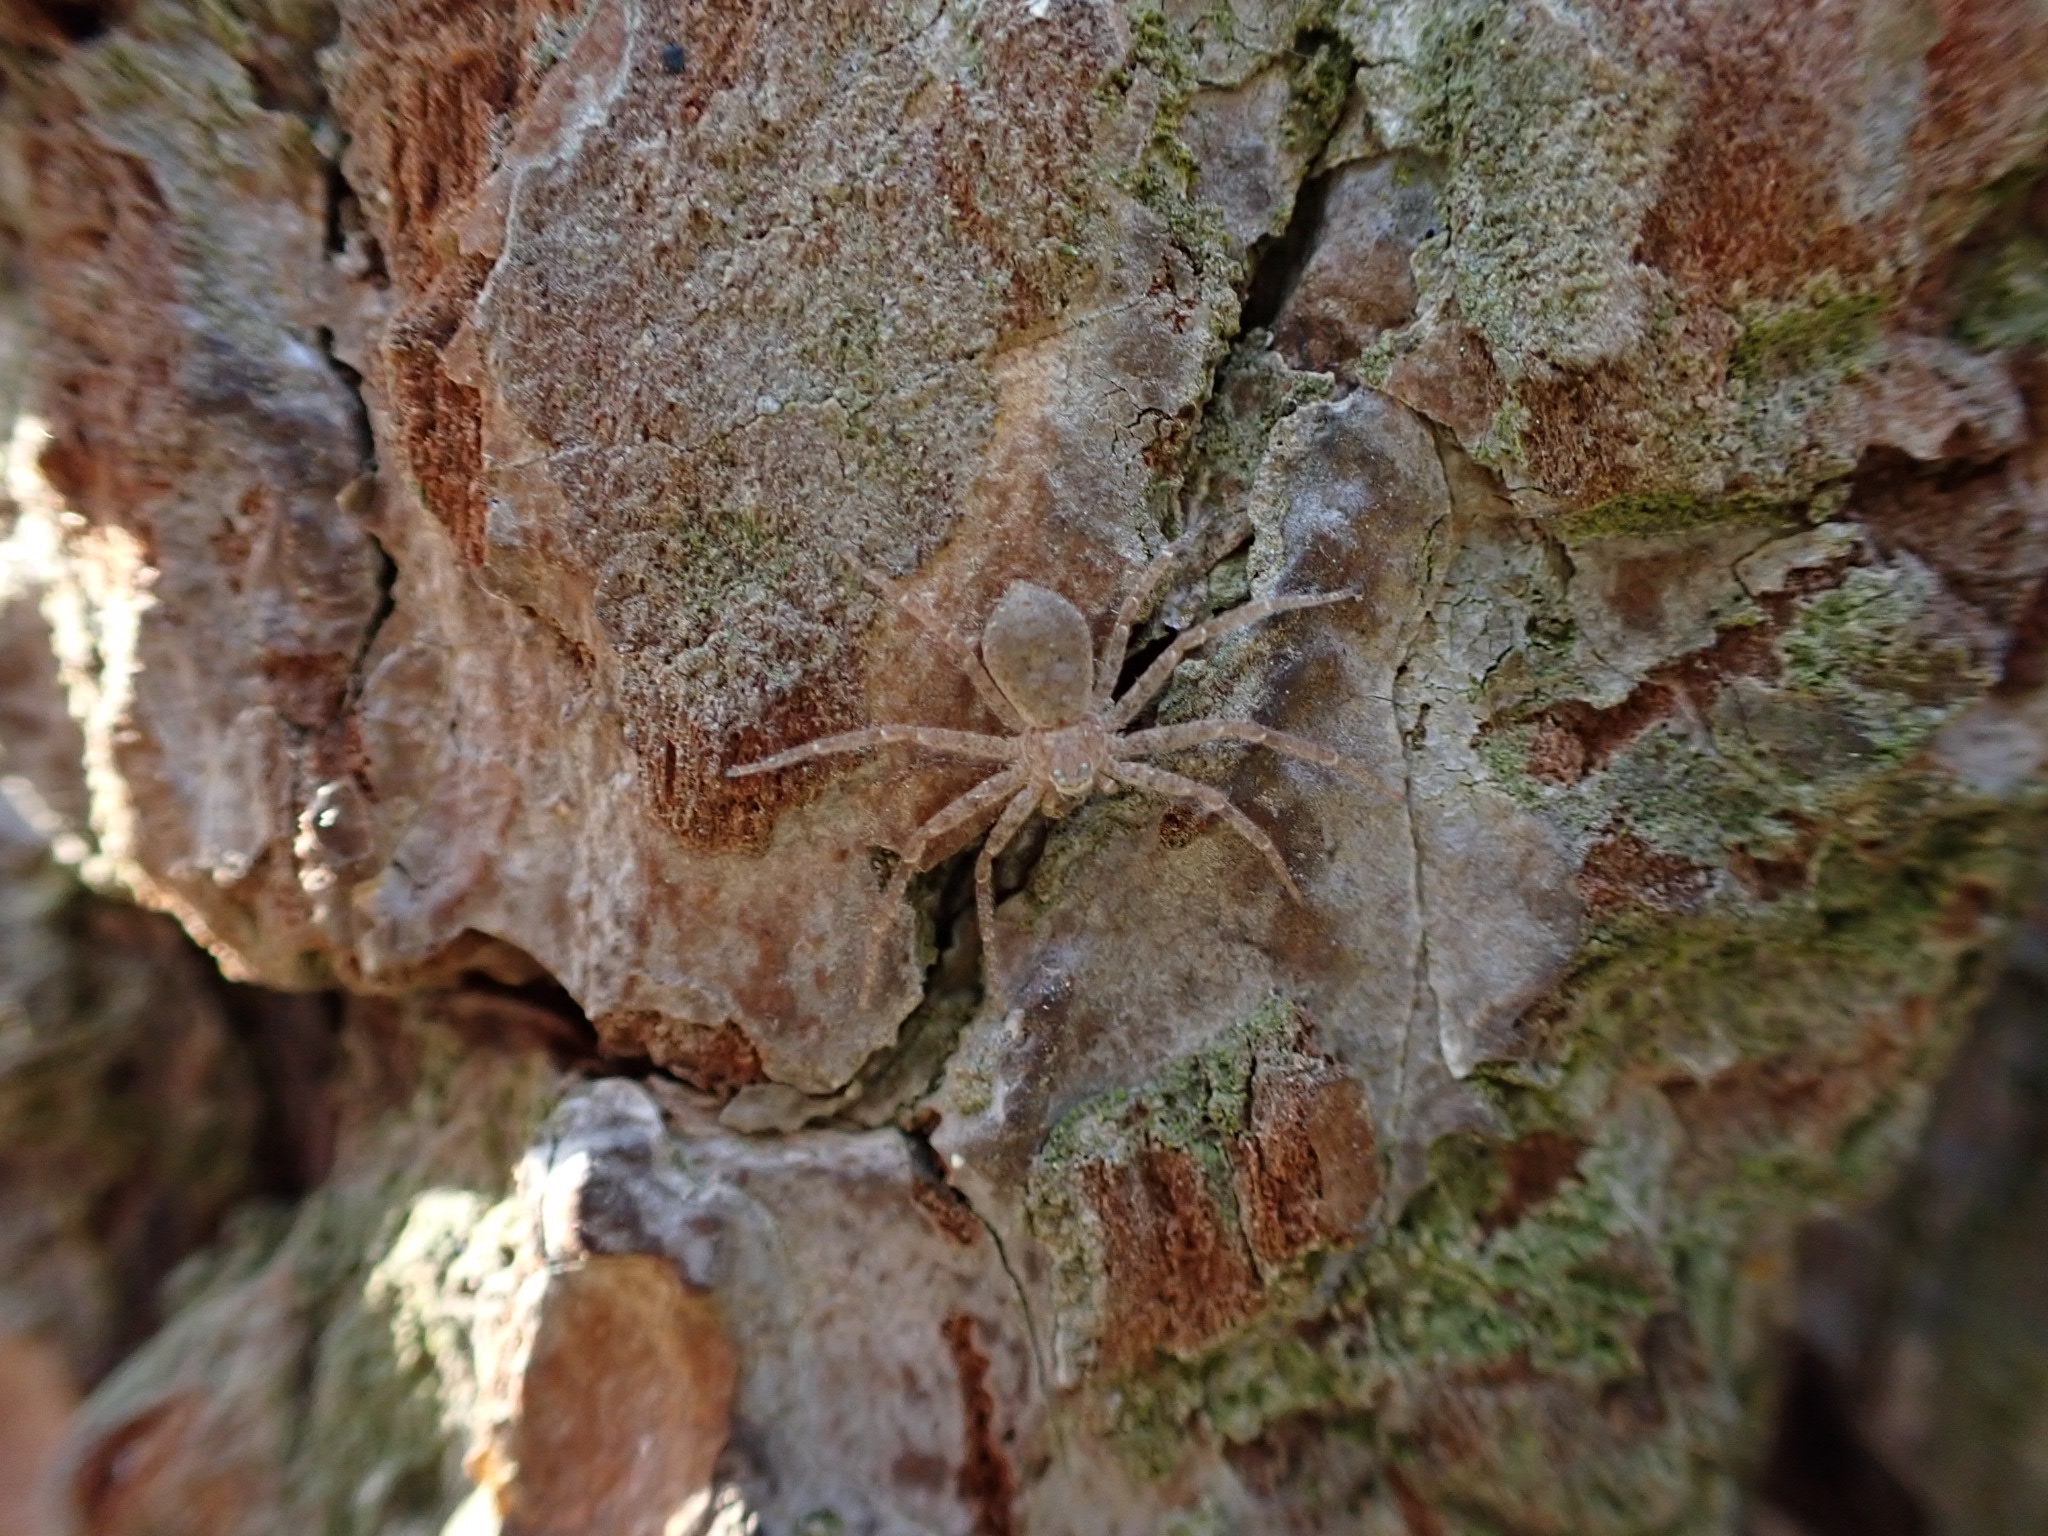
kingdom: Animalia
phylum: Arthropoda
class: Arachnida
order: Araneae
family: Philodromidae
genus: Philodromus
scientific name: Philodromus fuscomarginatus
